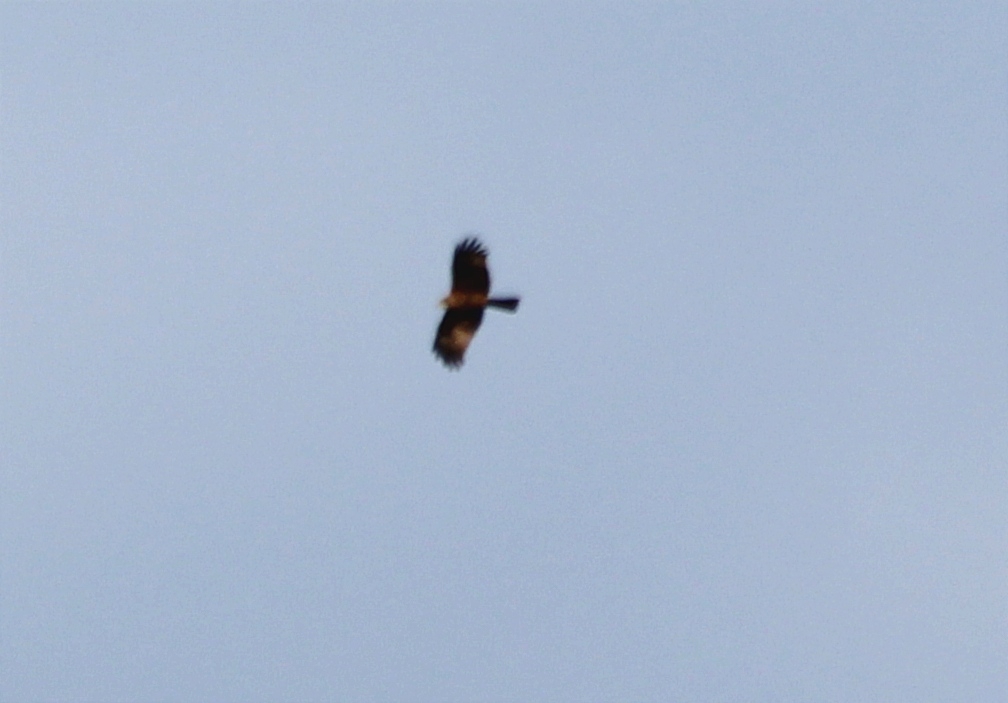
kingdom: Animalia
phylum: Chordata
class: Aves
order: Accipitriformes
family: Accipitridae
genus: Circus
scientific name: Circus aeruginosus
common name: Western marsh harrier
